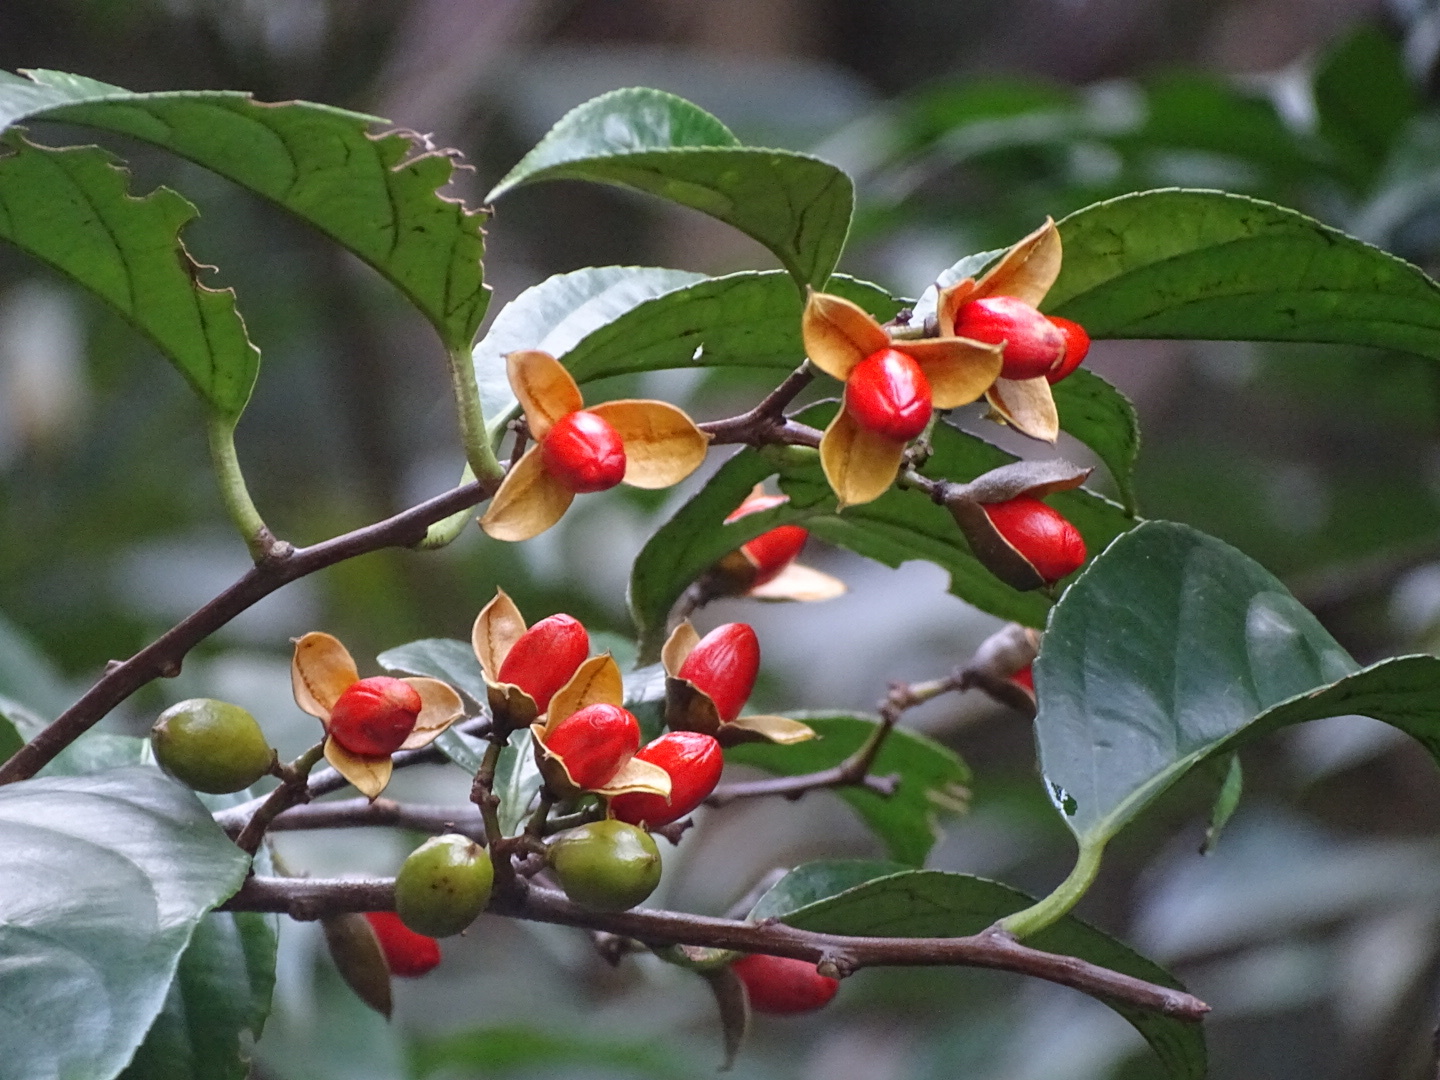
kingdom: Plantae
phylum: Tracheophyta
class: Magnoliopsida
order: Celastrales
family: Celastraceae
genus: Celastrus
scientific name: Celastrus stylosus
